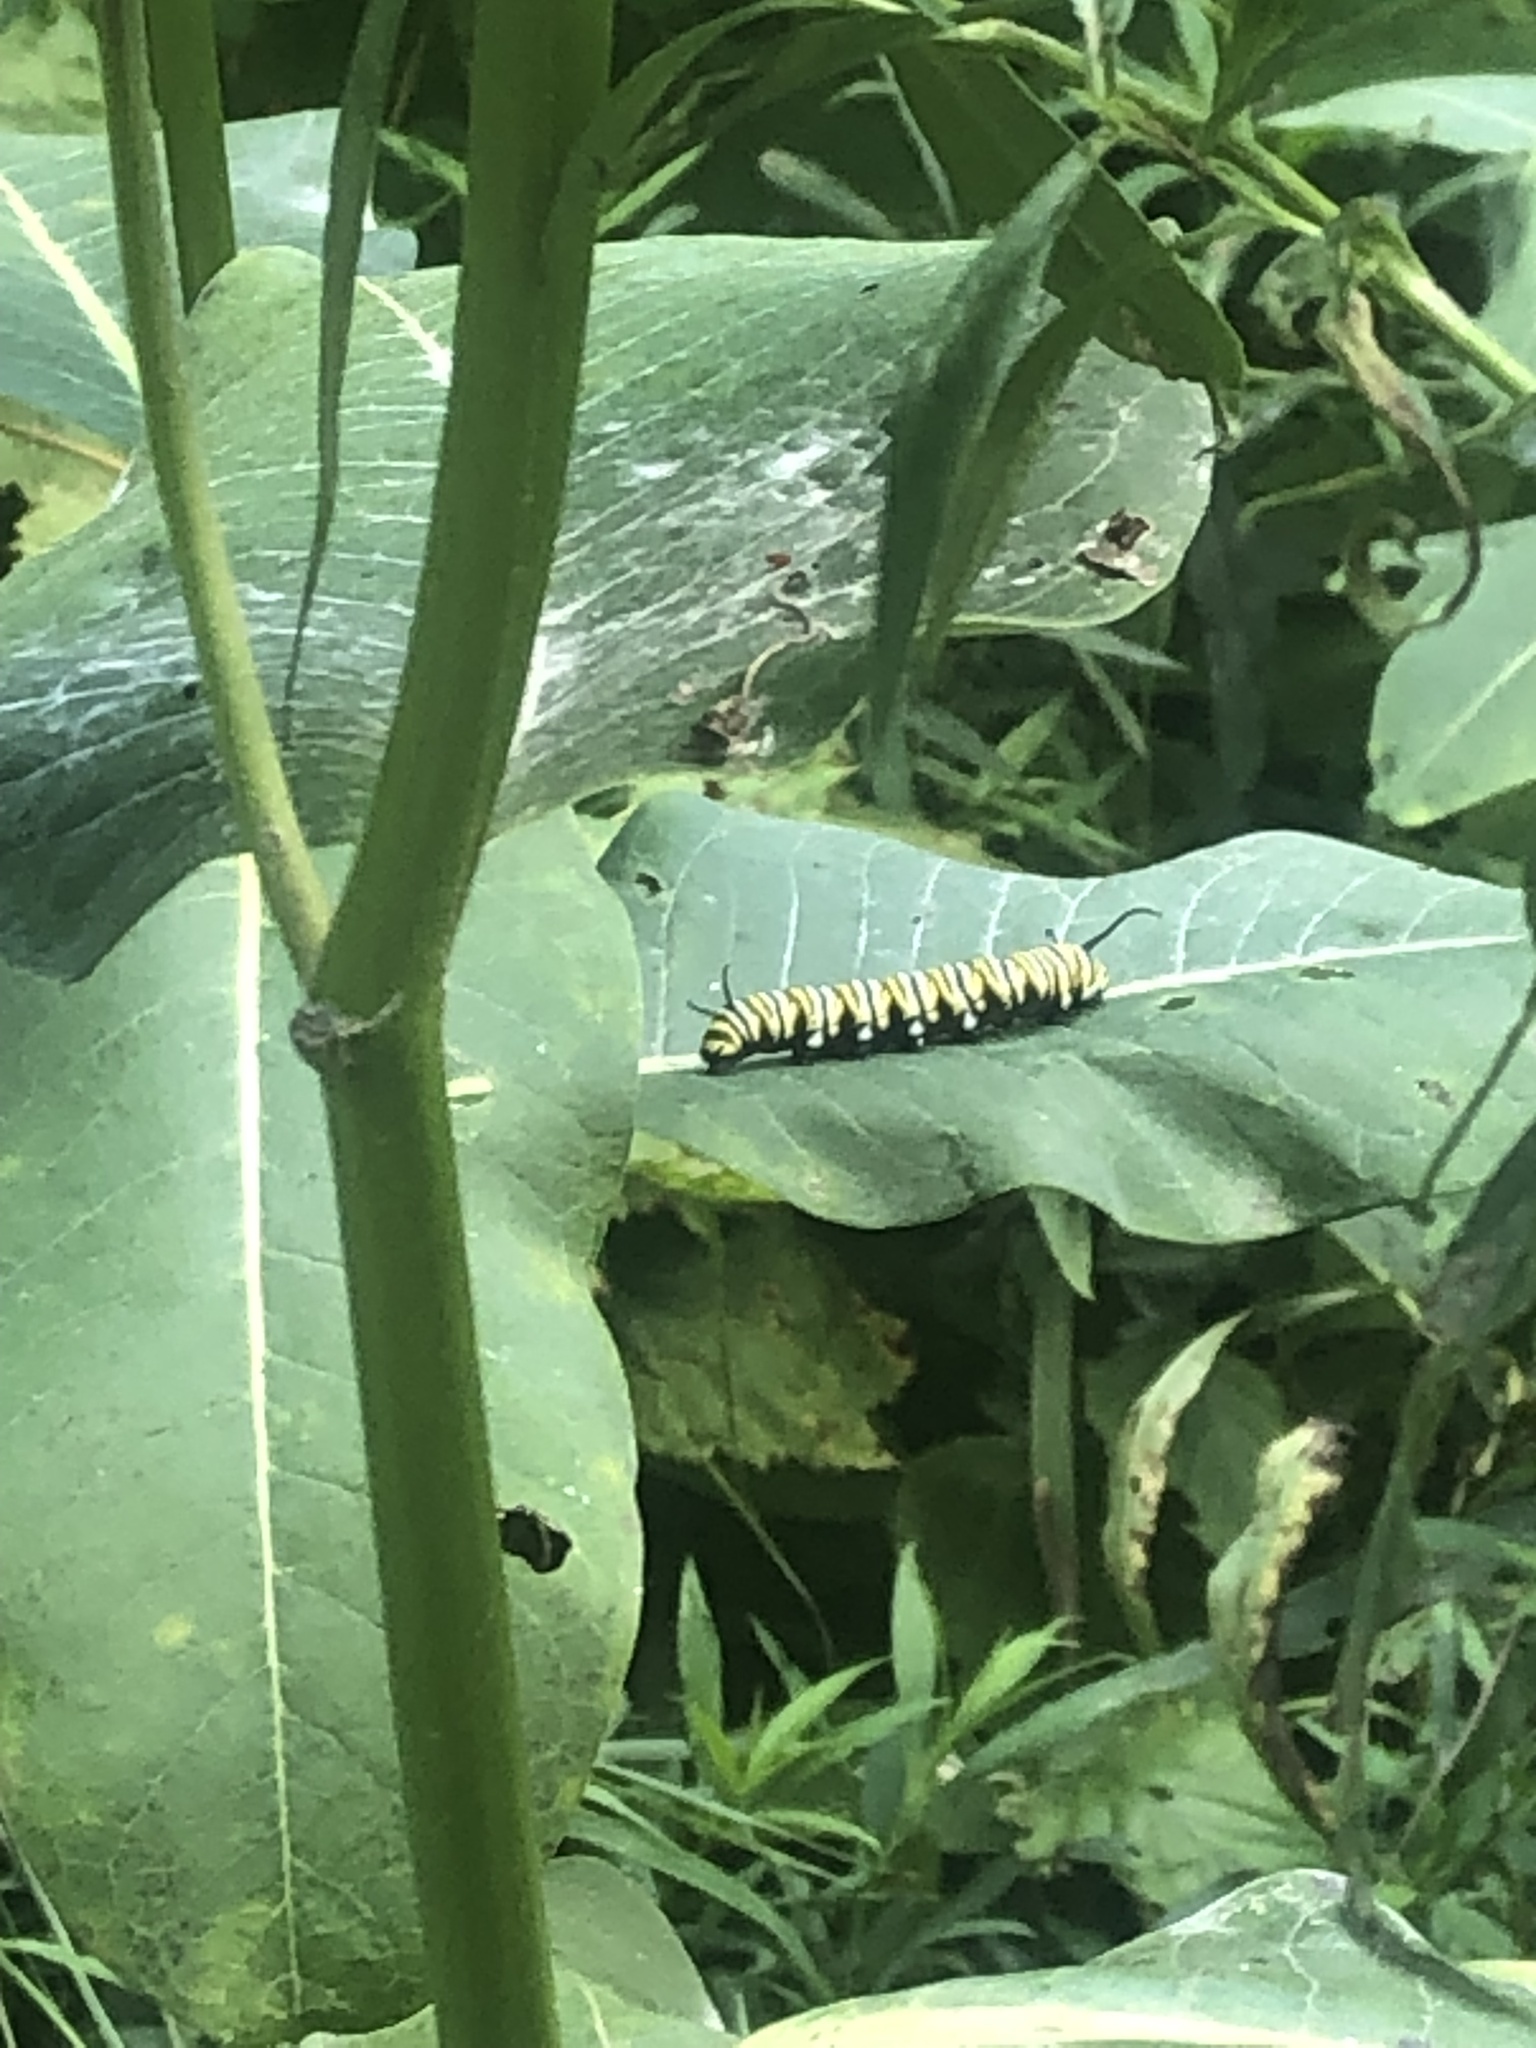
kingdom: Animalia
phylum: Arthropoda
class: Insecta
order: Lepidoptera
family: Nymphalidae
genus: Danaus
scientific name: Danaus plexippus
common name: Monarch
